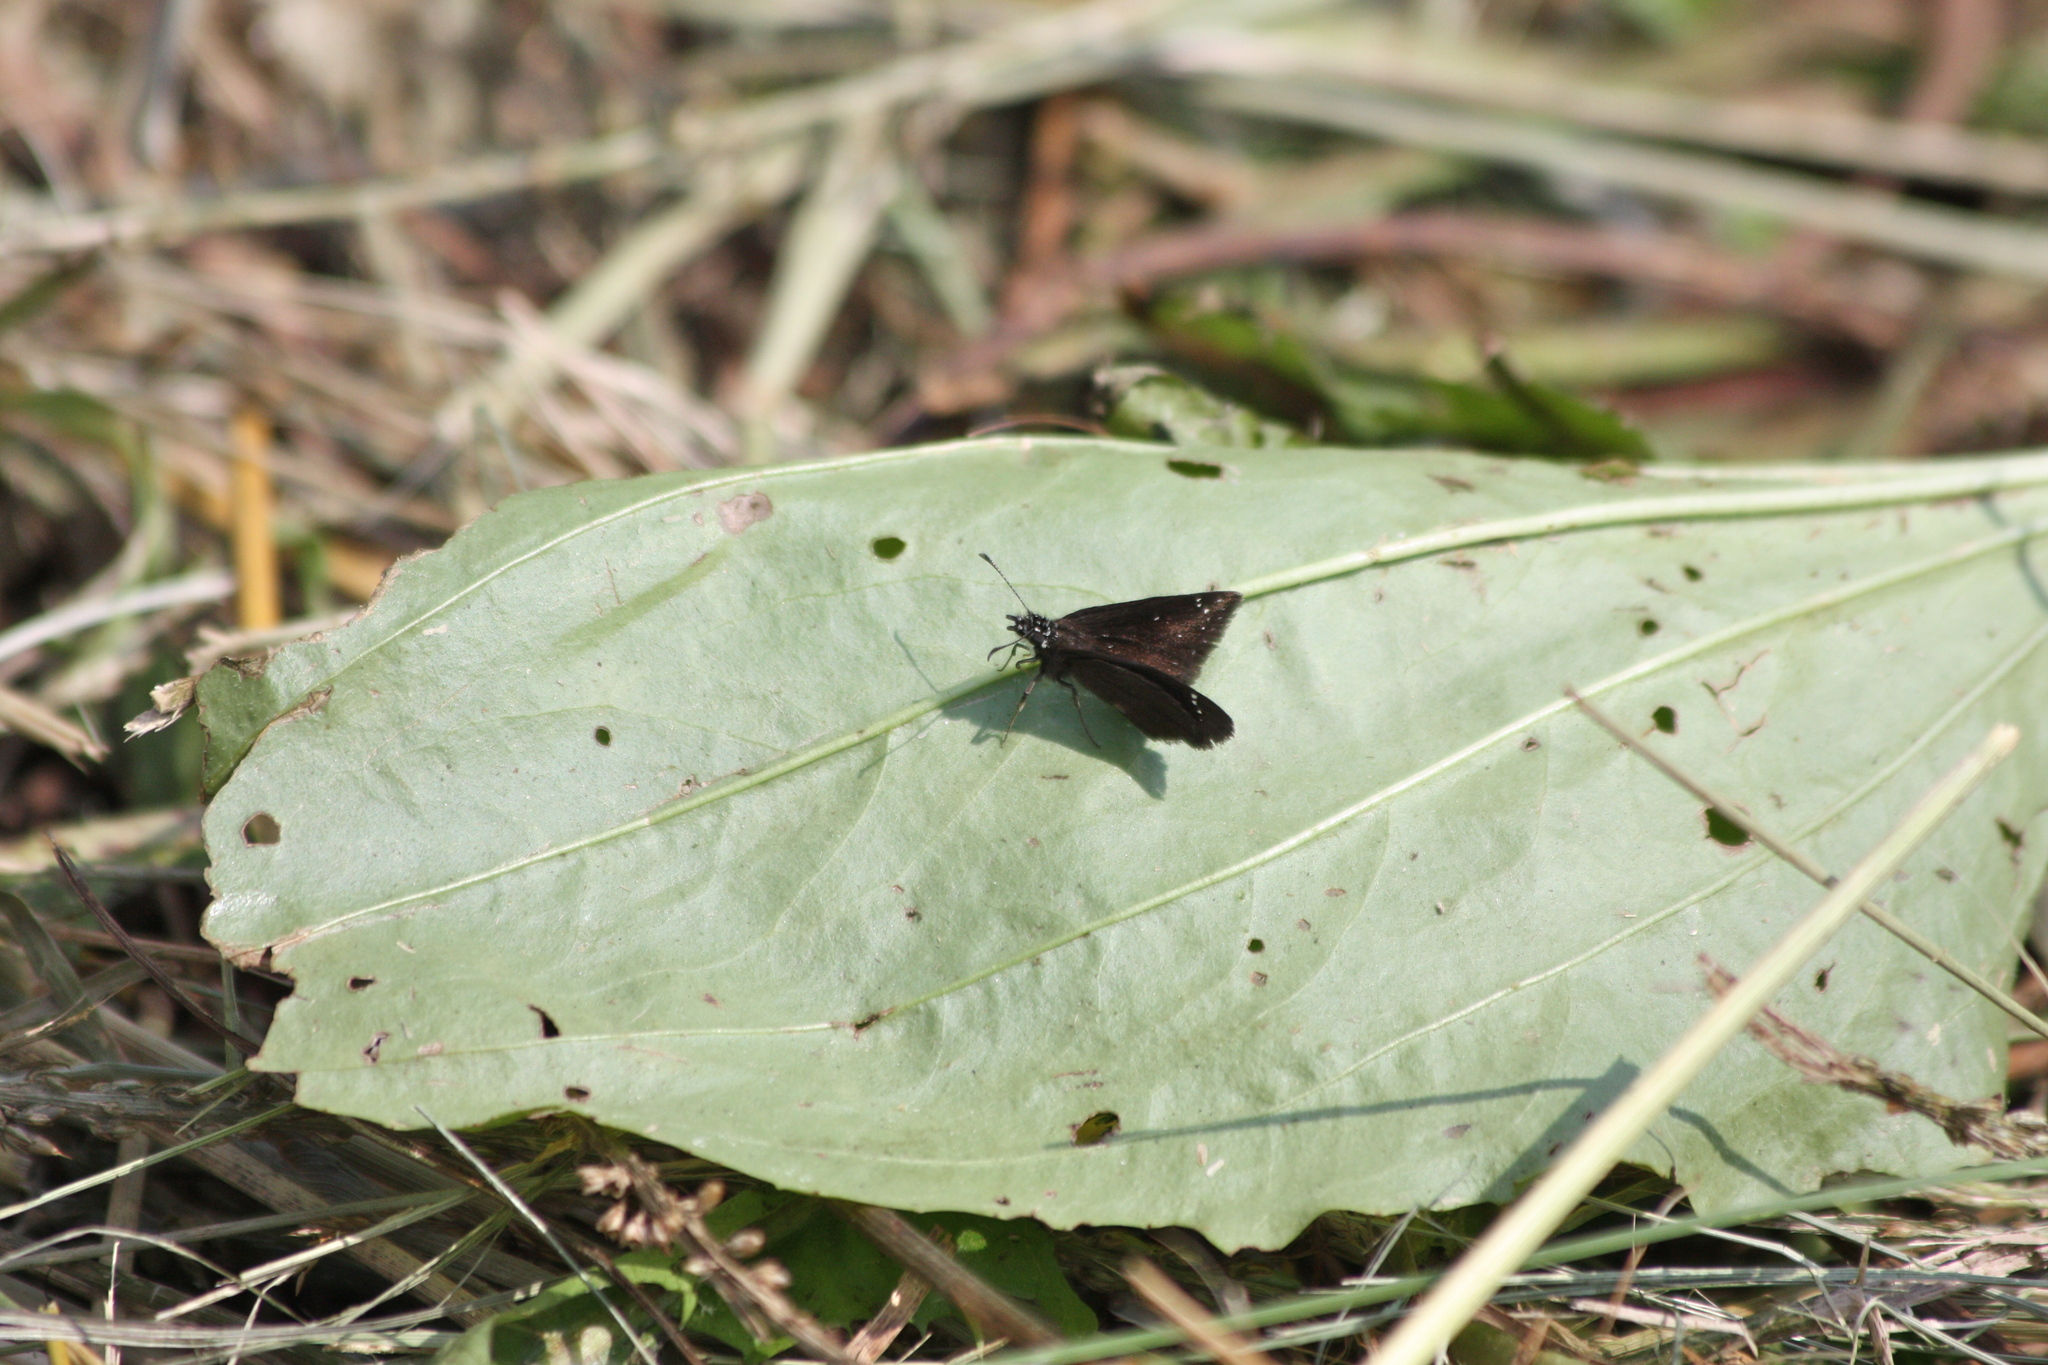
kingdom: Animalia
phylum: Arthropoda
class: Insecta
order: Lepidoptera
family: Hesperiidae
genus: Pholisora
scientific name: Pholisora catullus
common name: Common sootywing
